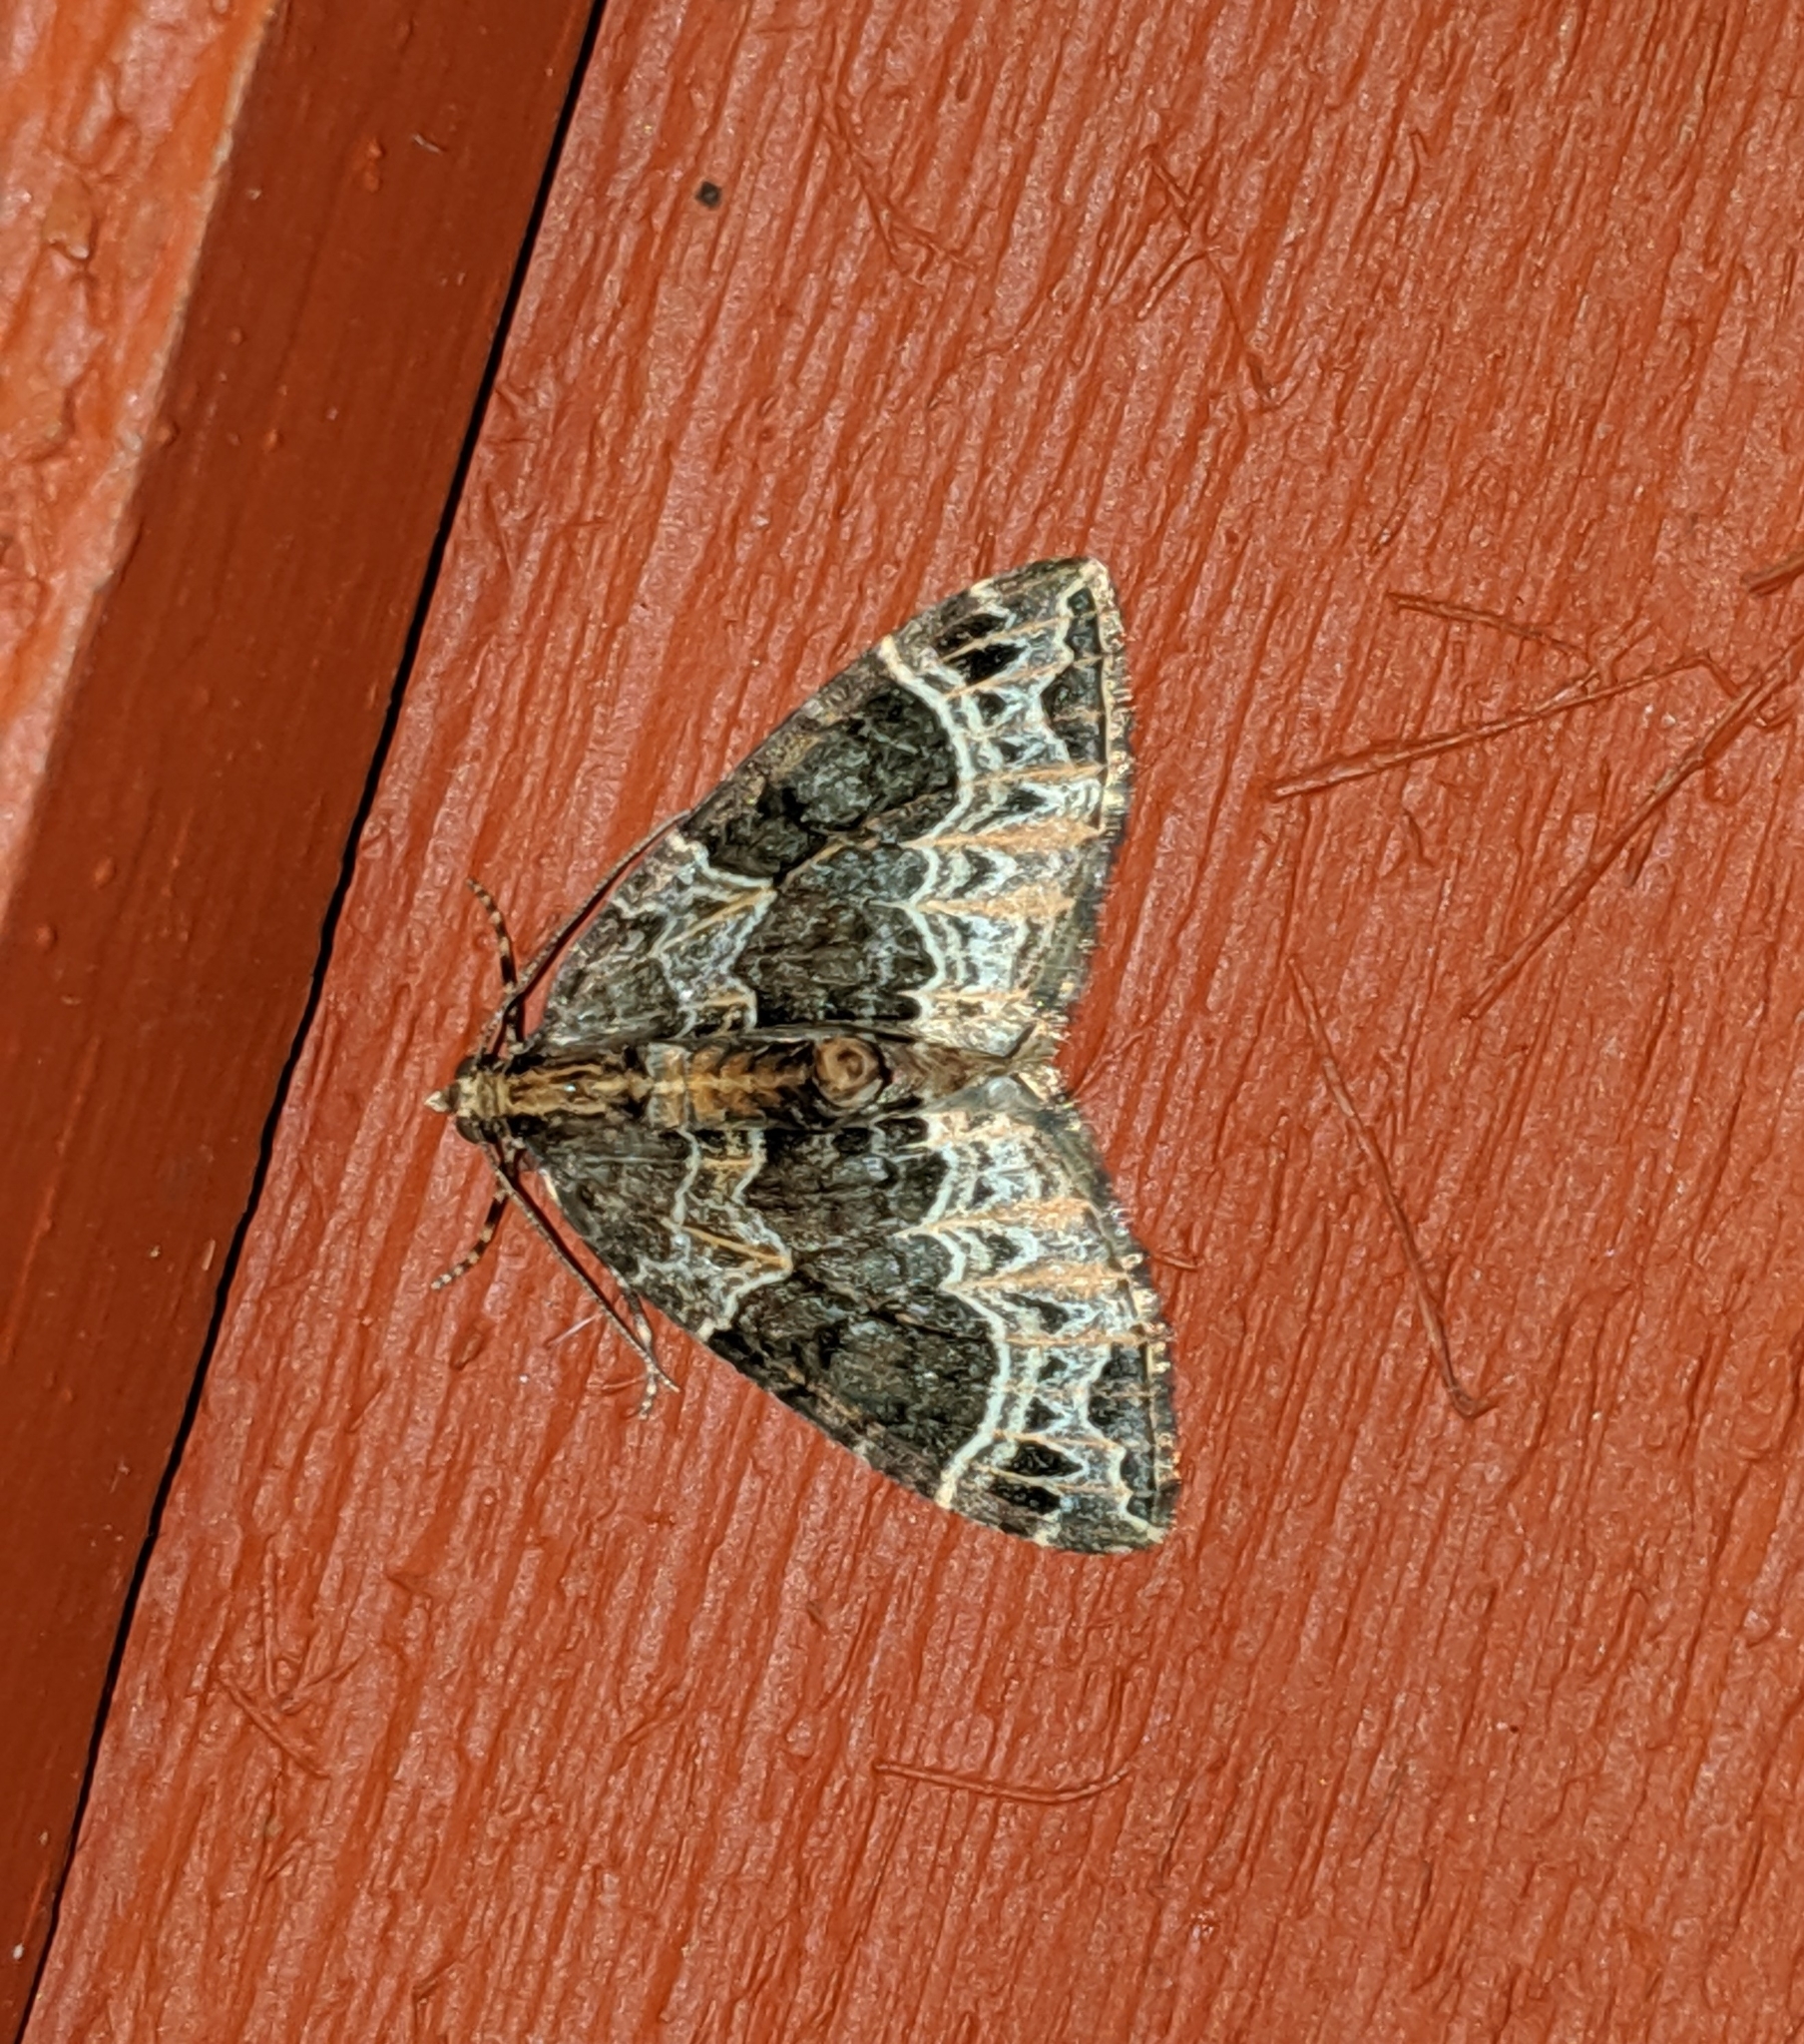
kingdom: Animalia
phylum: Arthropoda
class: Insecta
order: Lepidoptera
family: Geometridae
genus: Ecliptopera
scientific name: Ecliptopera silaceata
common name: Small phoenix
